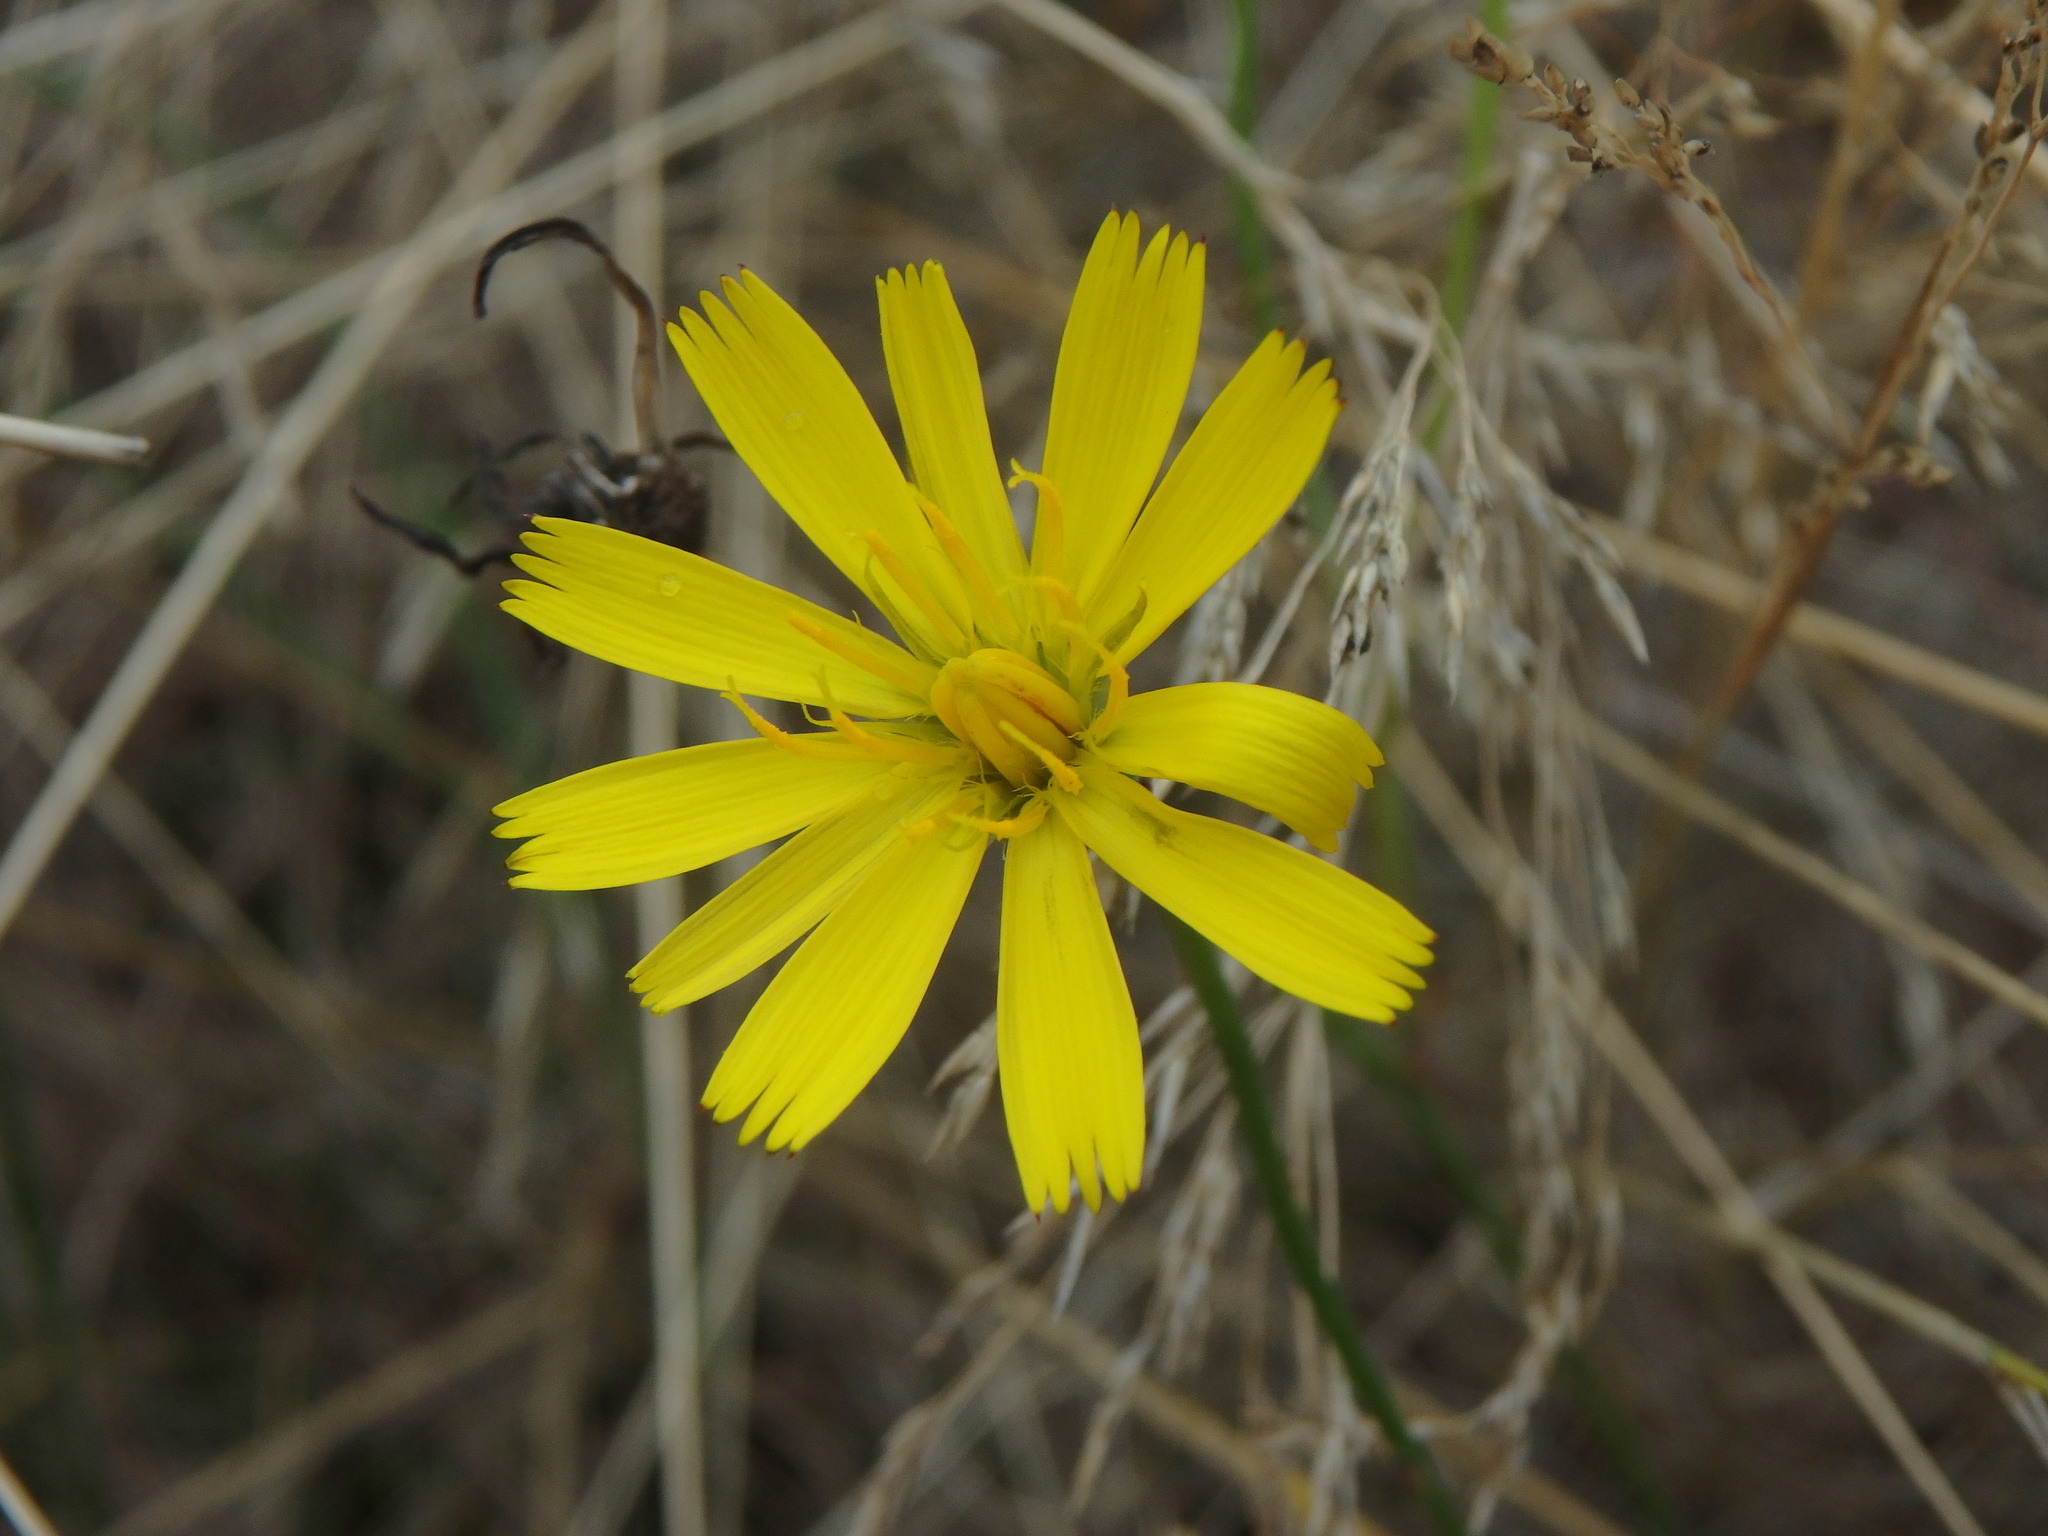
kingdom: Plantae
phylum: Tracheophyta
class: Magnoliopsida
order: Asterales
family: Asteraceae
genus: Hypochaeris
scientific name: Hypochaeris radicata
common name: Flatweed
